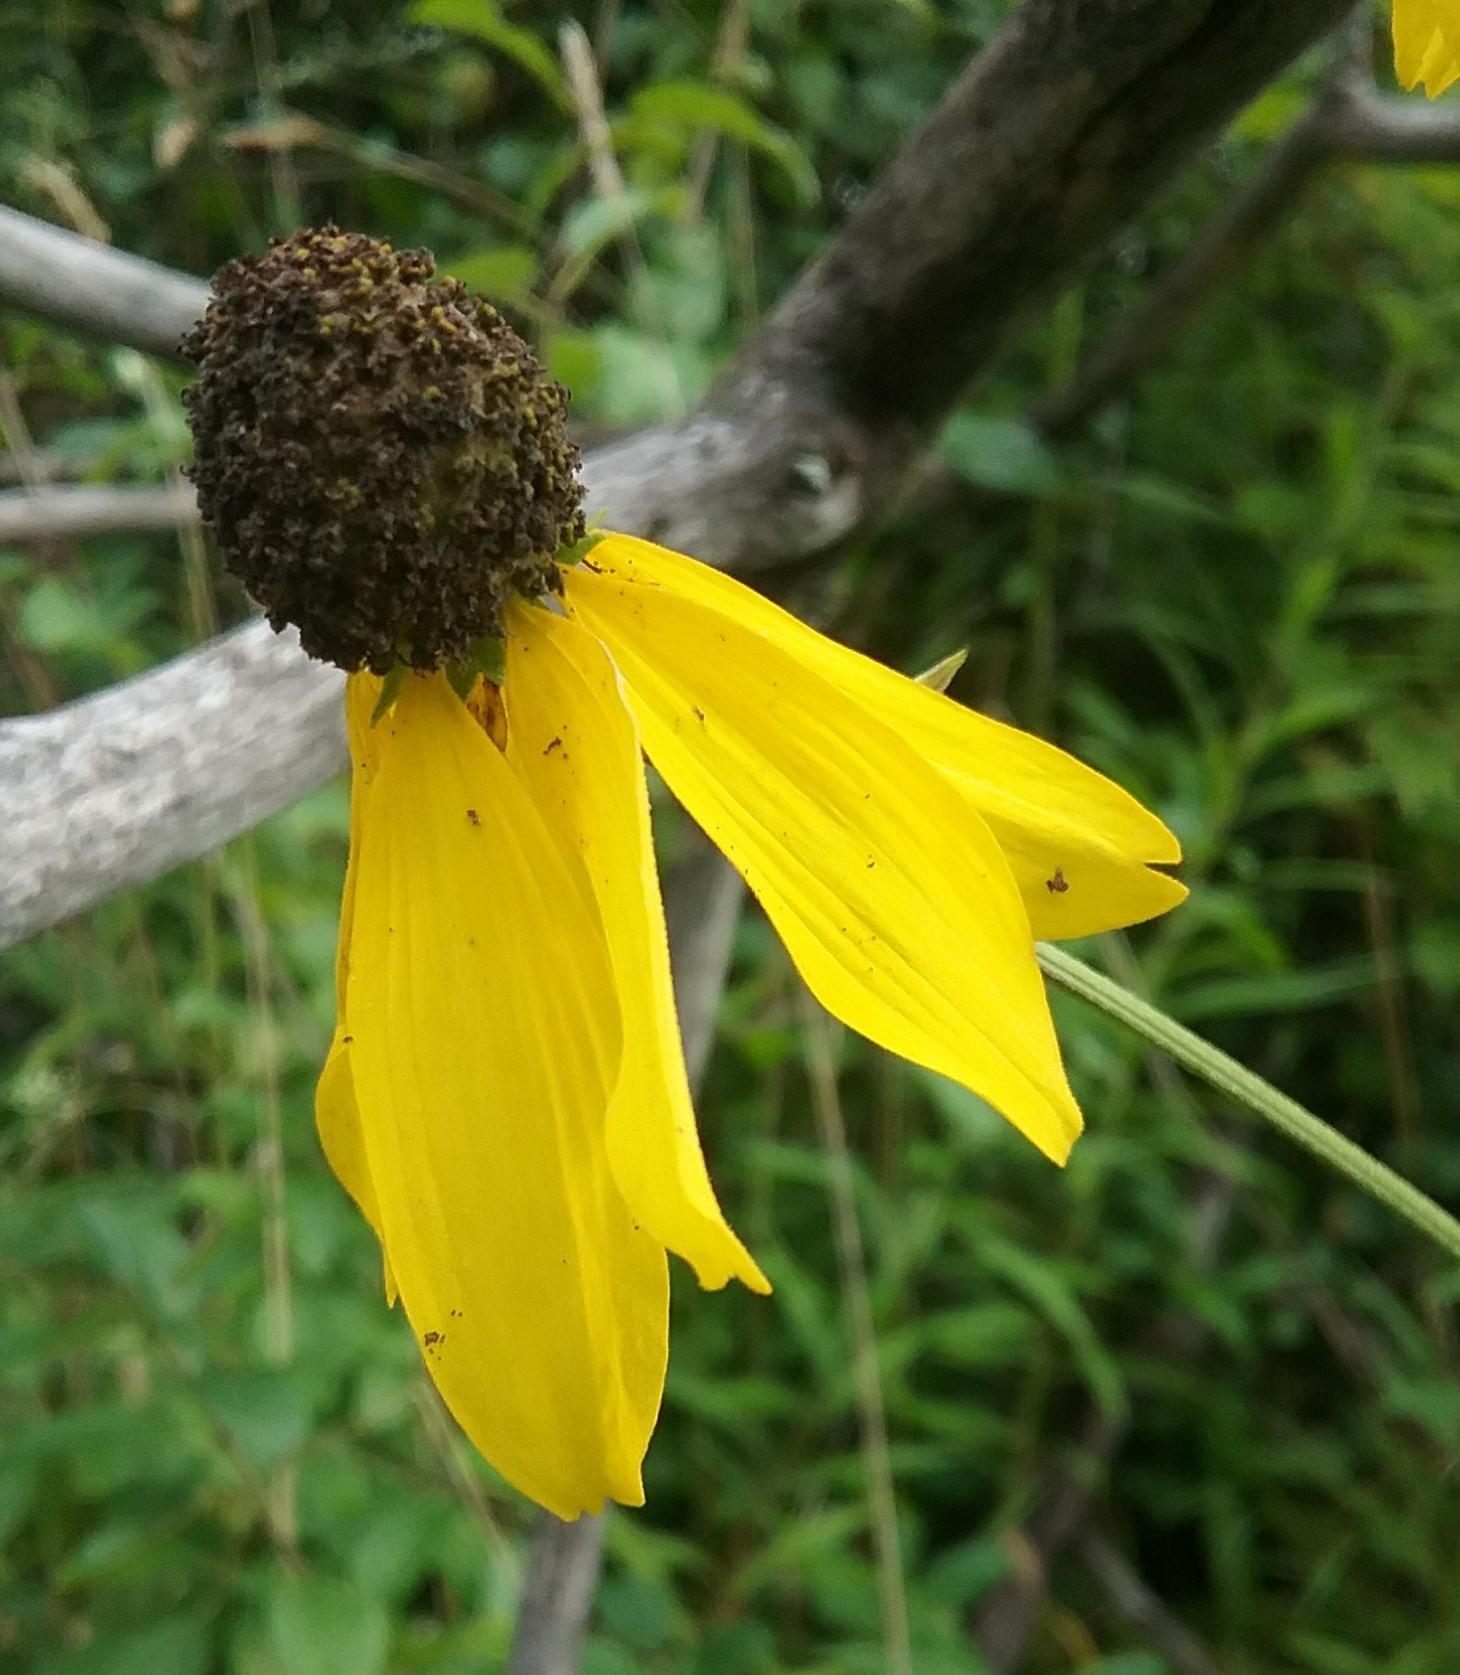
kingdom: Plantae
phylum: Tracheophyta
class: Magnoliopsida
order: Asterales
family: Asteraceae
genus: Ratibida
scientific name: Ratibida pinnata
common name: Drooping prairie-coneflower
